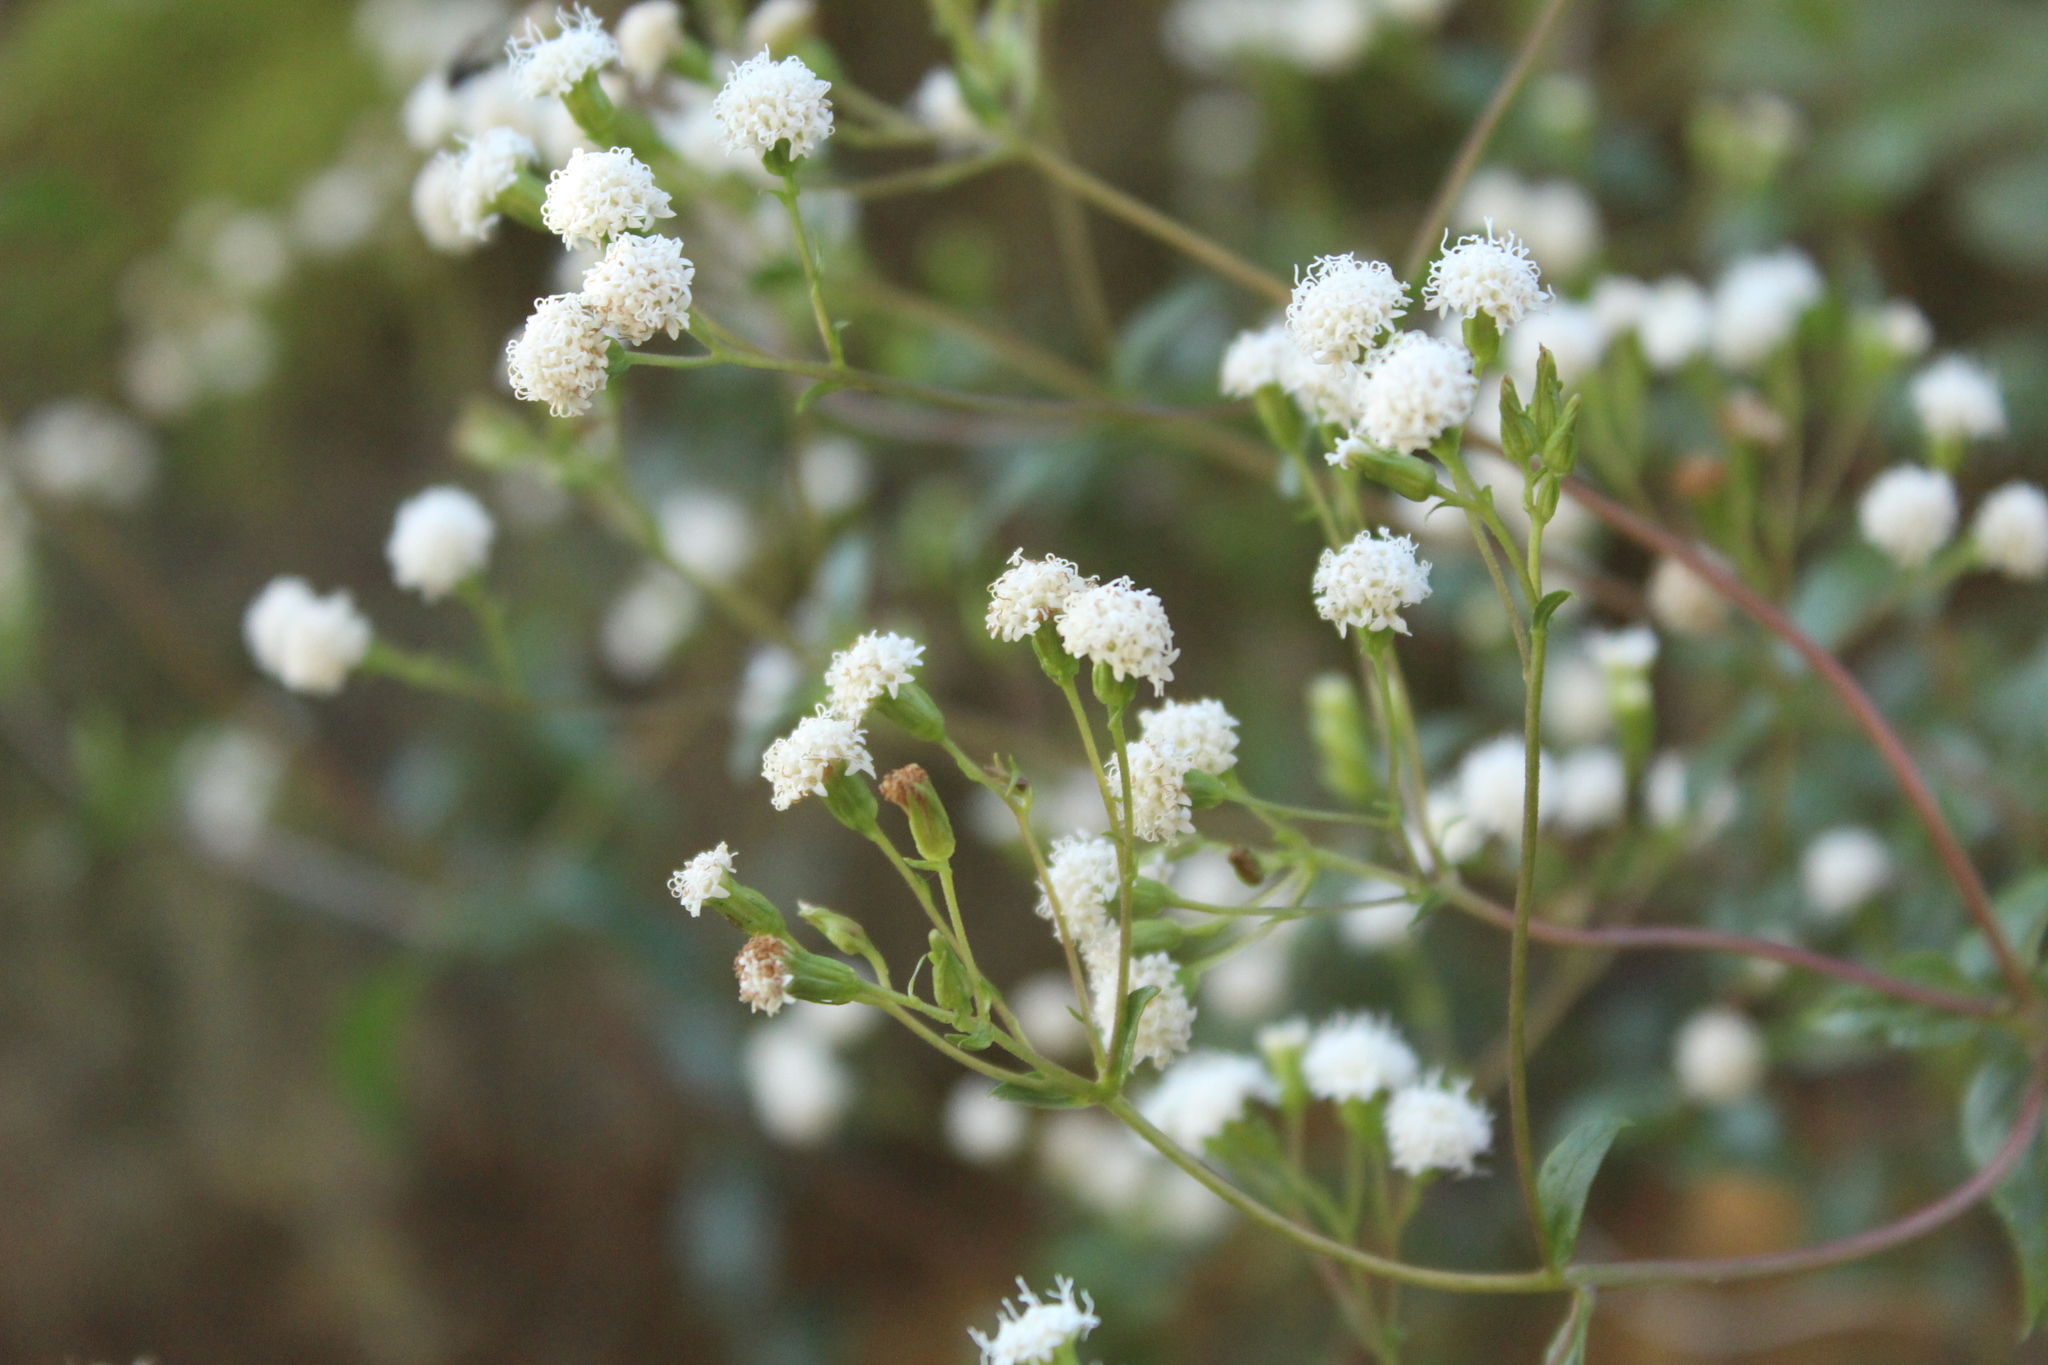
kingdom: Plantae
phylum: Tracheophyta
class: Magnoliopsida
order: Asterales
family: Asteraceae
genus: Ageratina
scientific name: Ageratina gracilis
